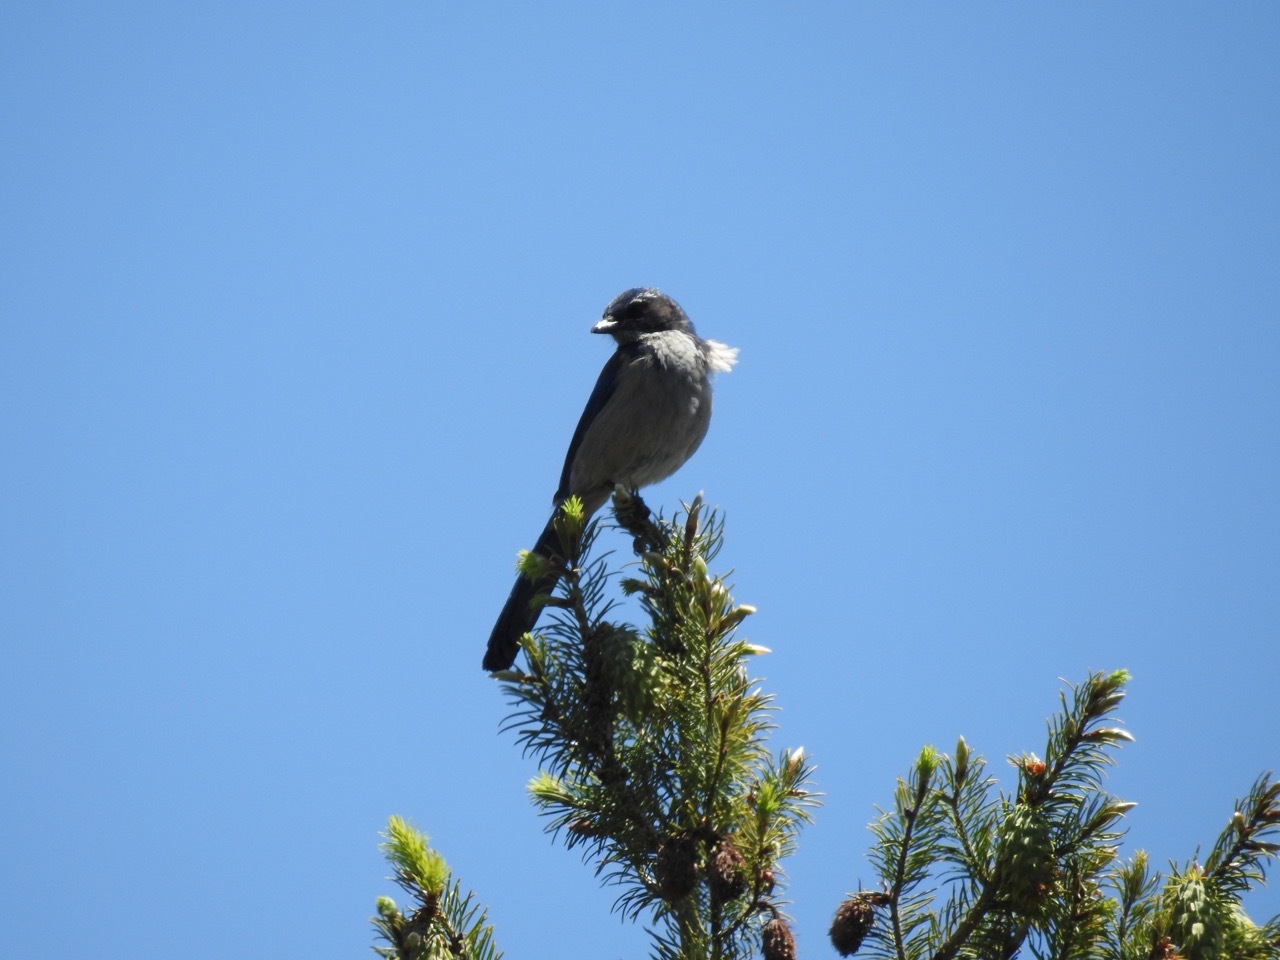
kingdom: Animalia
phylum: Chordata
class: Aves
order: Passeriformes
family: Corvidae
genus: Aphelocoma
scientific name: Aphelocoma californica
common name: California scrub-jay
